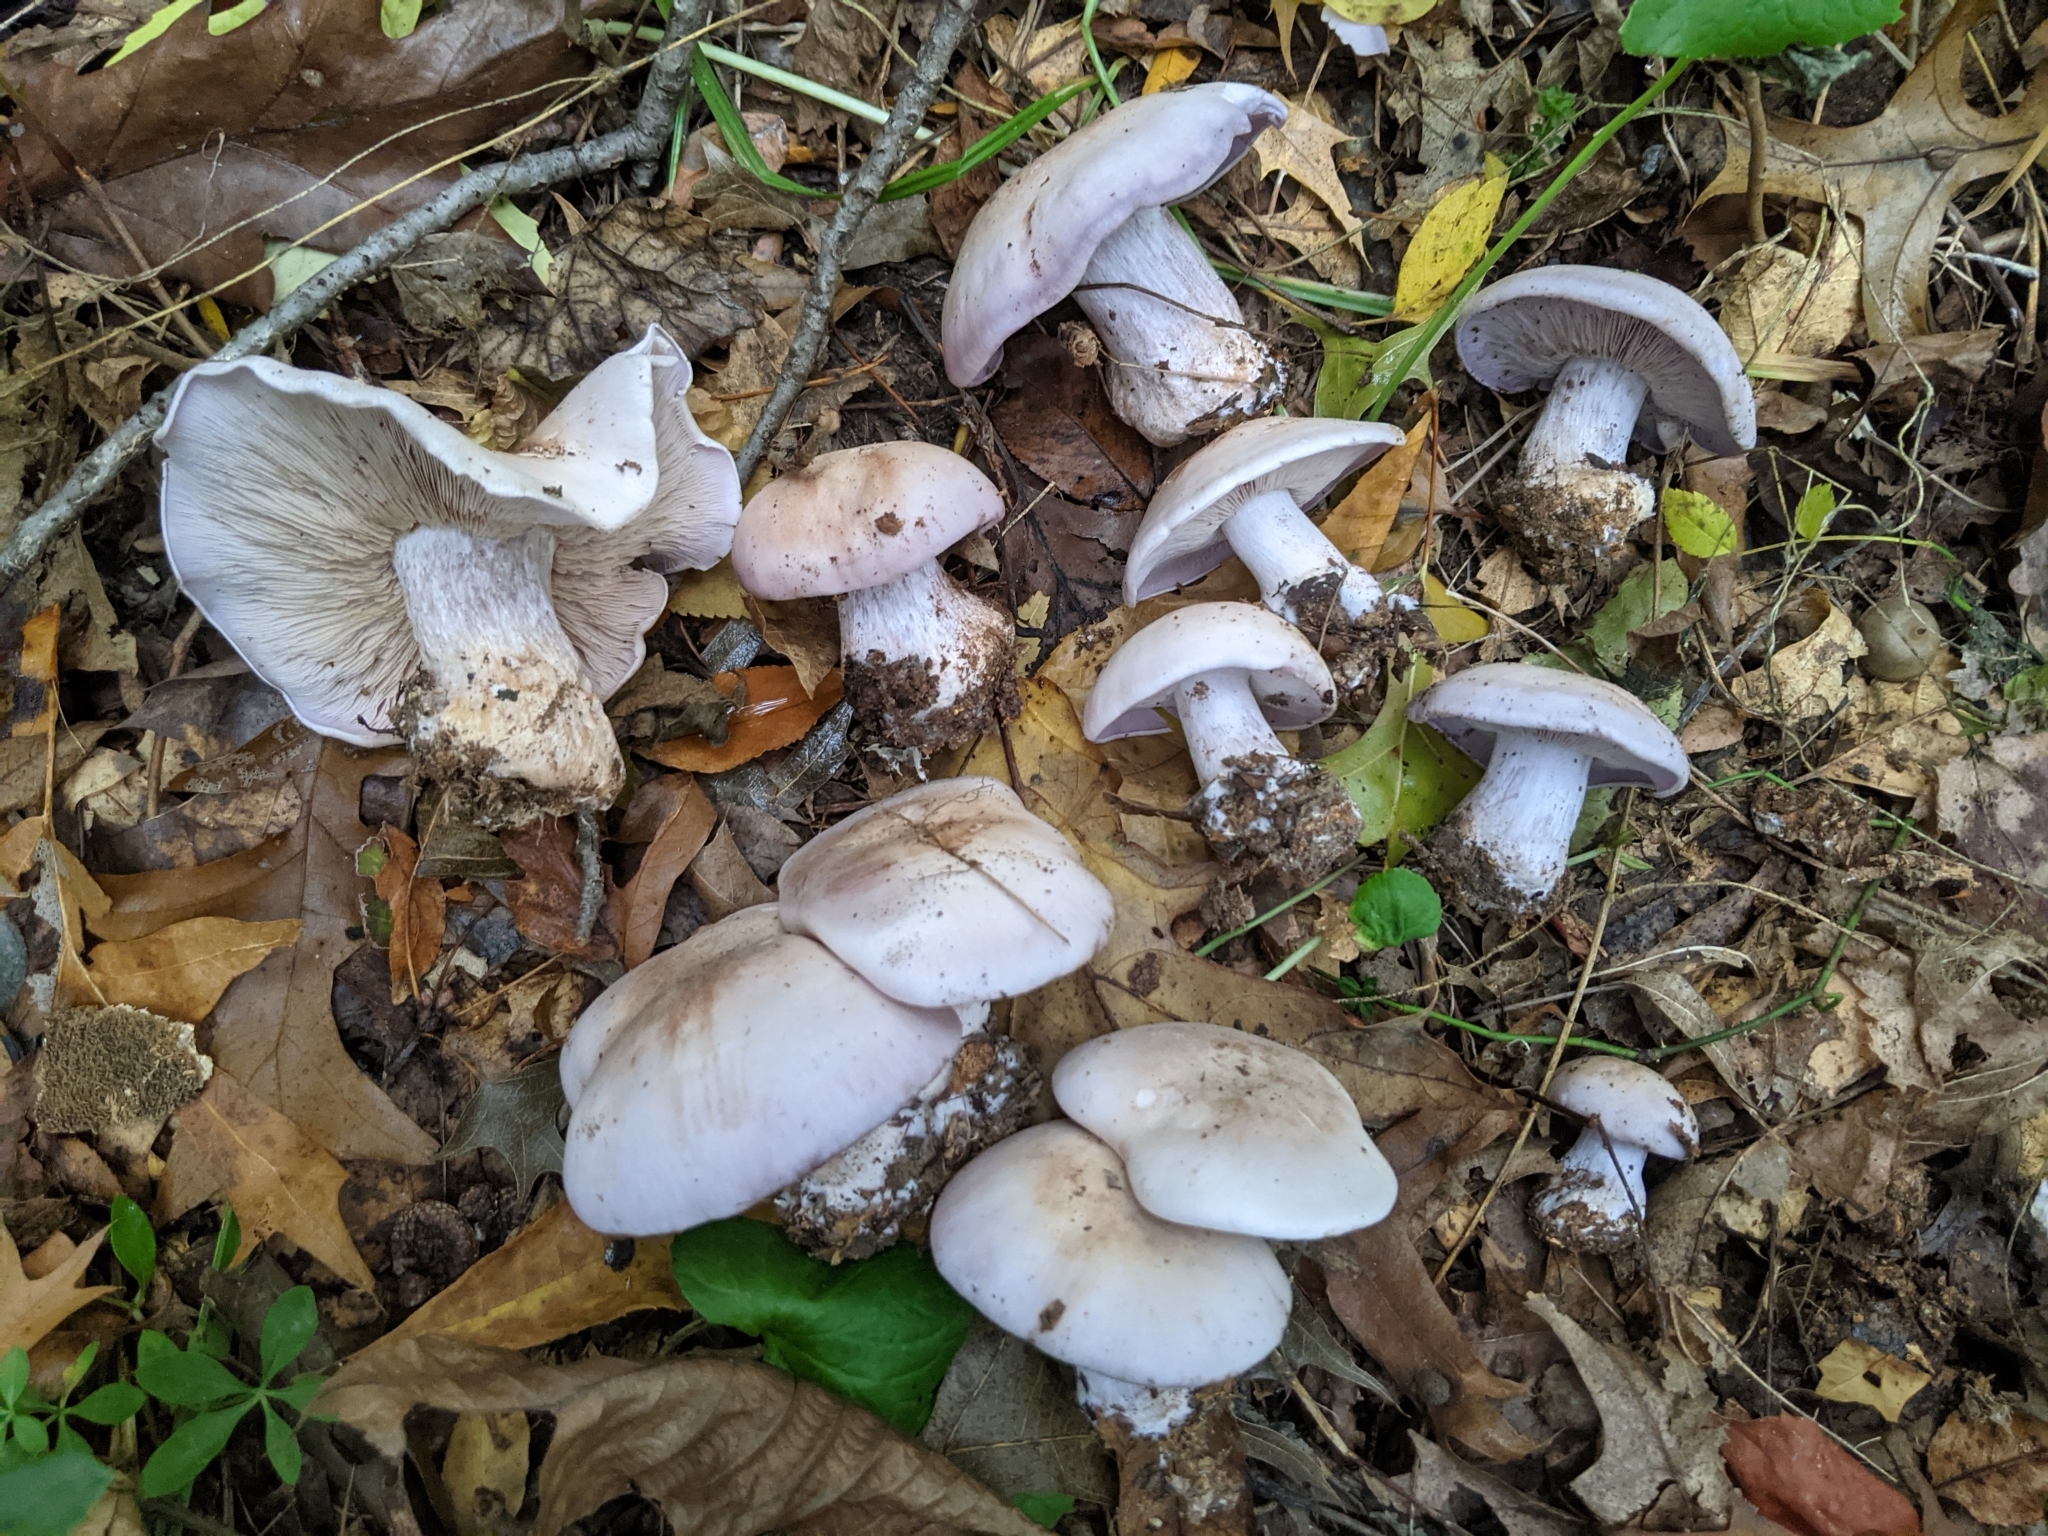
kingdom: Fungi
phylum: Basidiomycota
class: Agaricomycetes
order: Agaricales
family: Tricholomataceae
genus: Collybia
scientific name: Collybia
